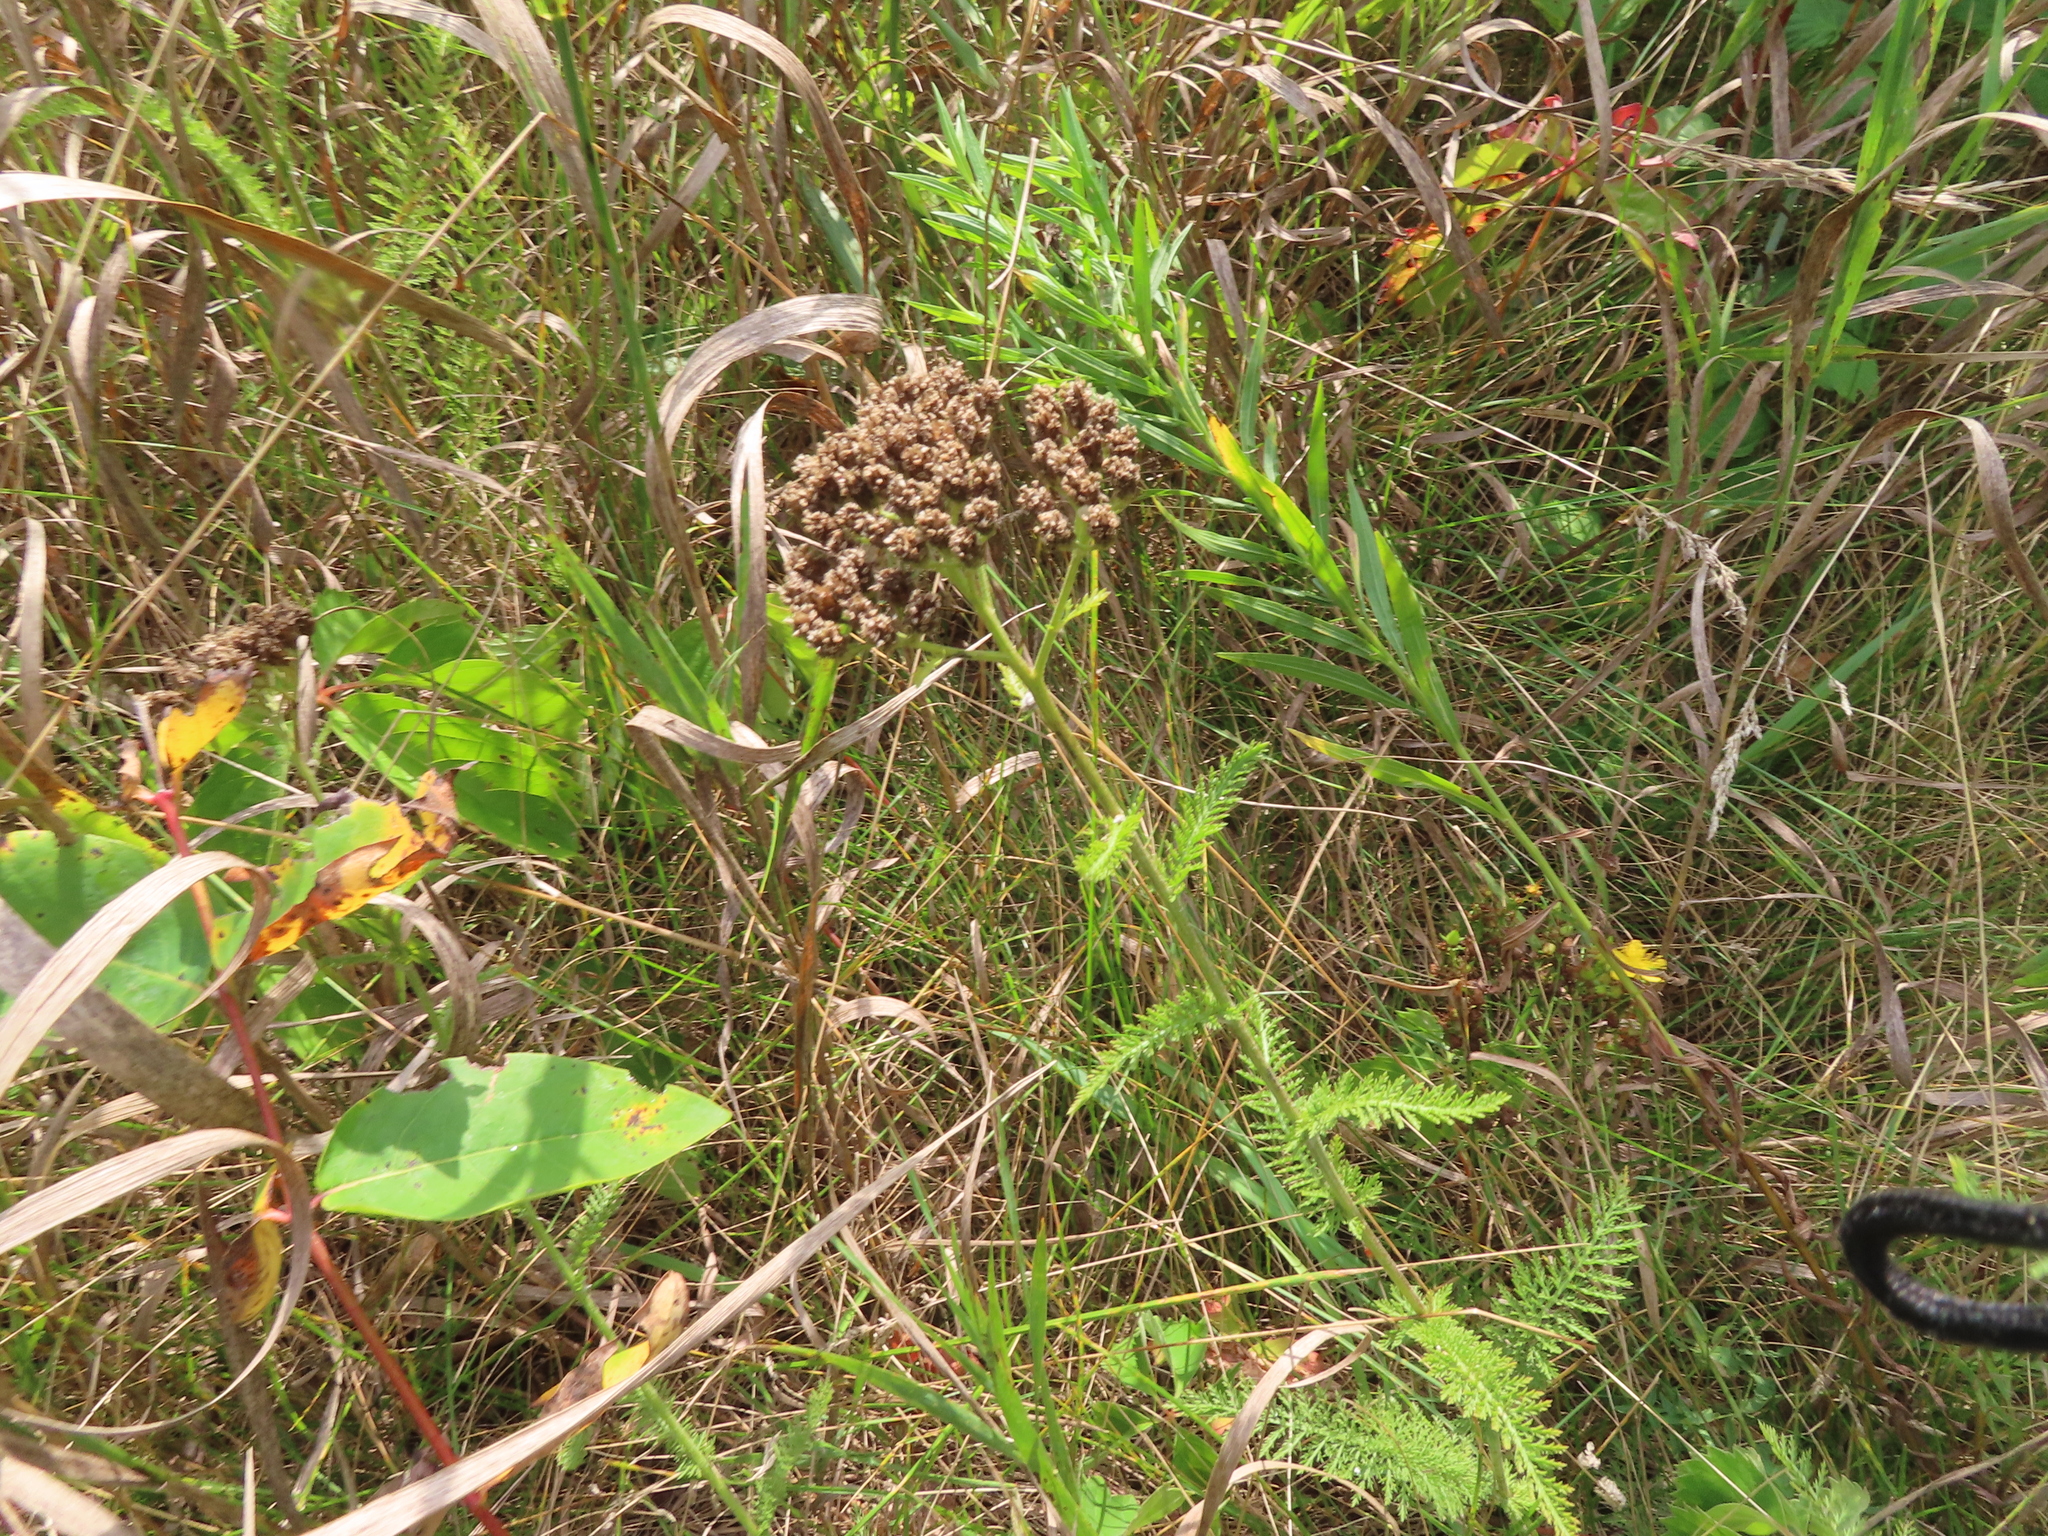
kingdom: Plantae
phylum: Tracheophyta
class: Magnoliopsida
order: Asterales
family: Asteraceae
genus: Achillea
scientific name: Achillea millefolium
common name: Yarrow
